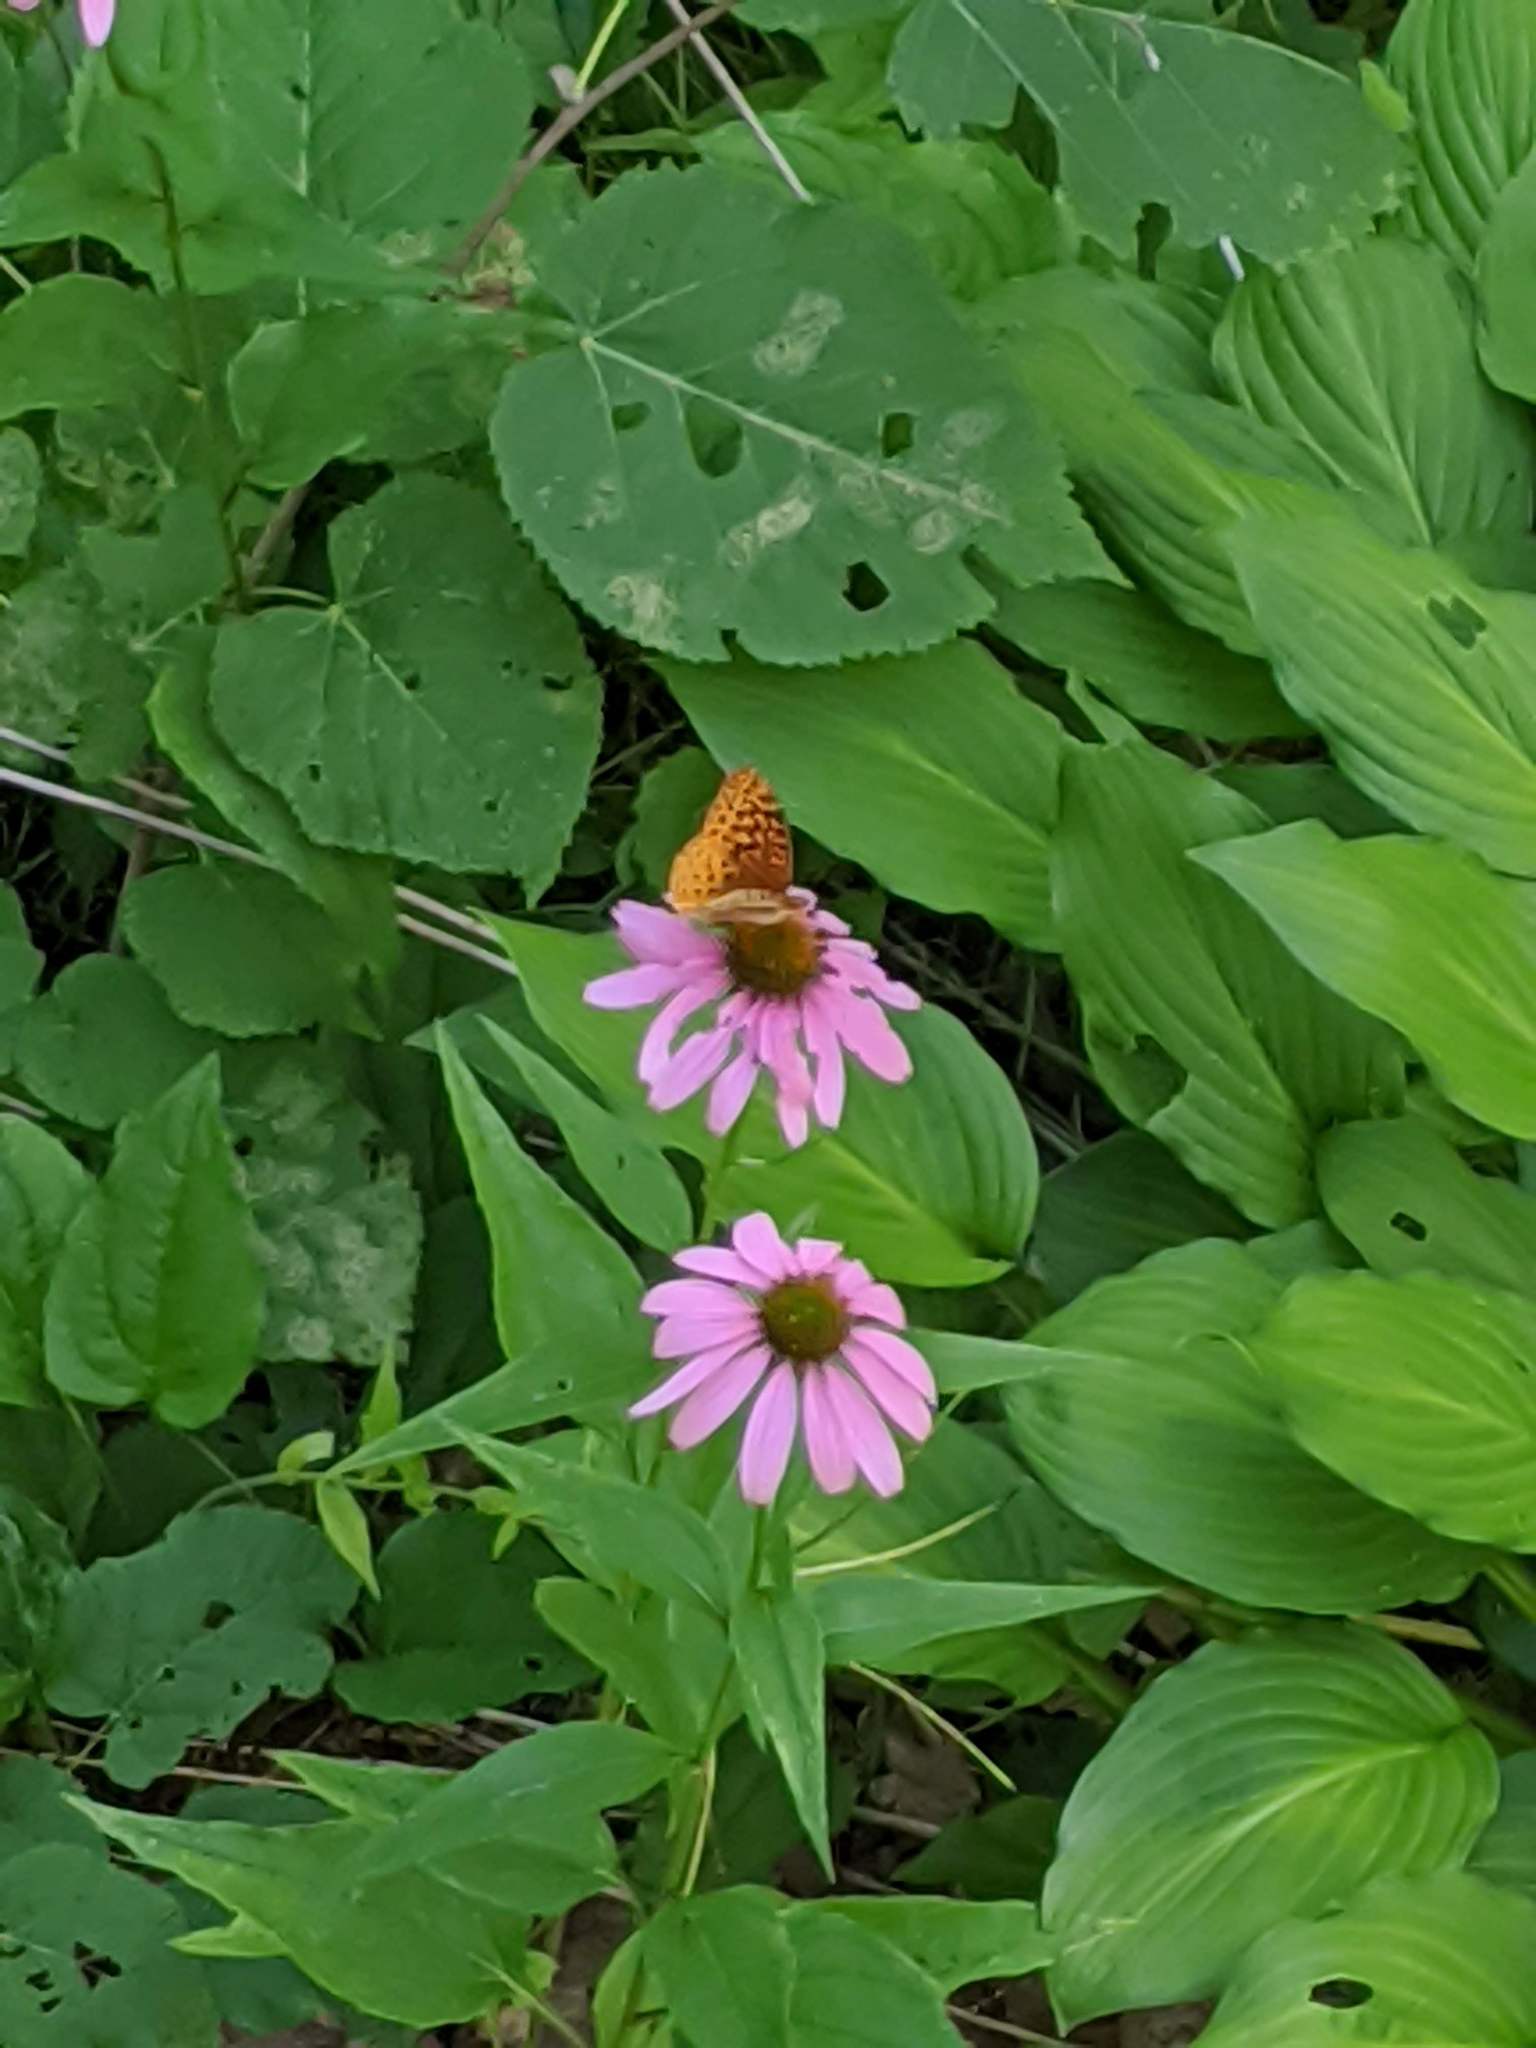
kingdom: Animalia
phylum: Arthropoda
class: Insecta
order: Lepidoptera
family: Nymphalidae
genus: Speyeria
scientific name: Speyeria cybele
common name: Great spangled fritillary
